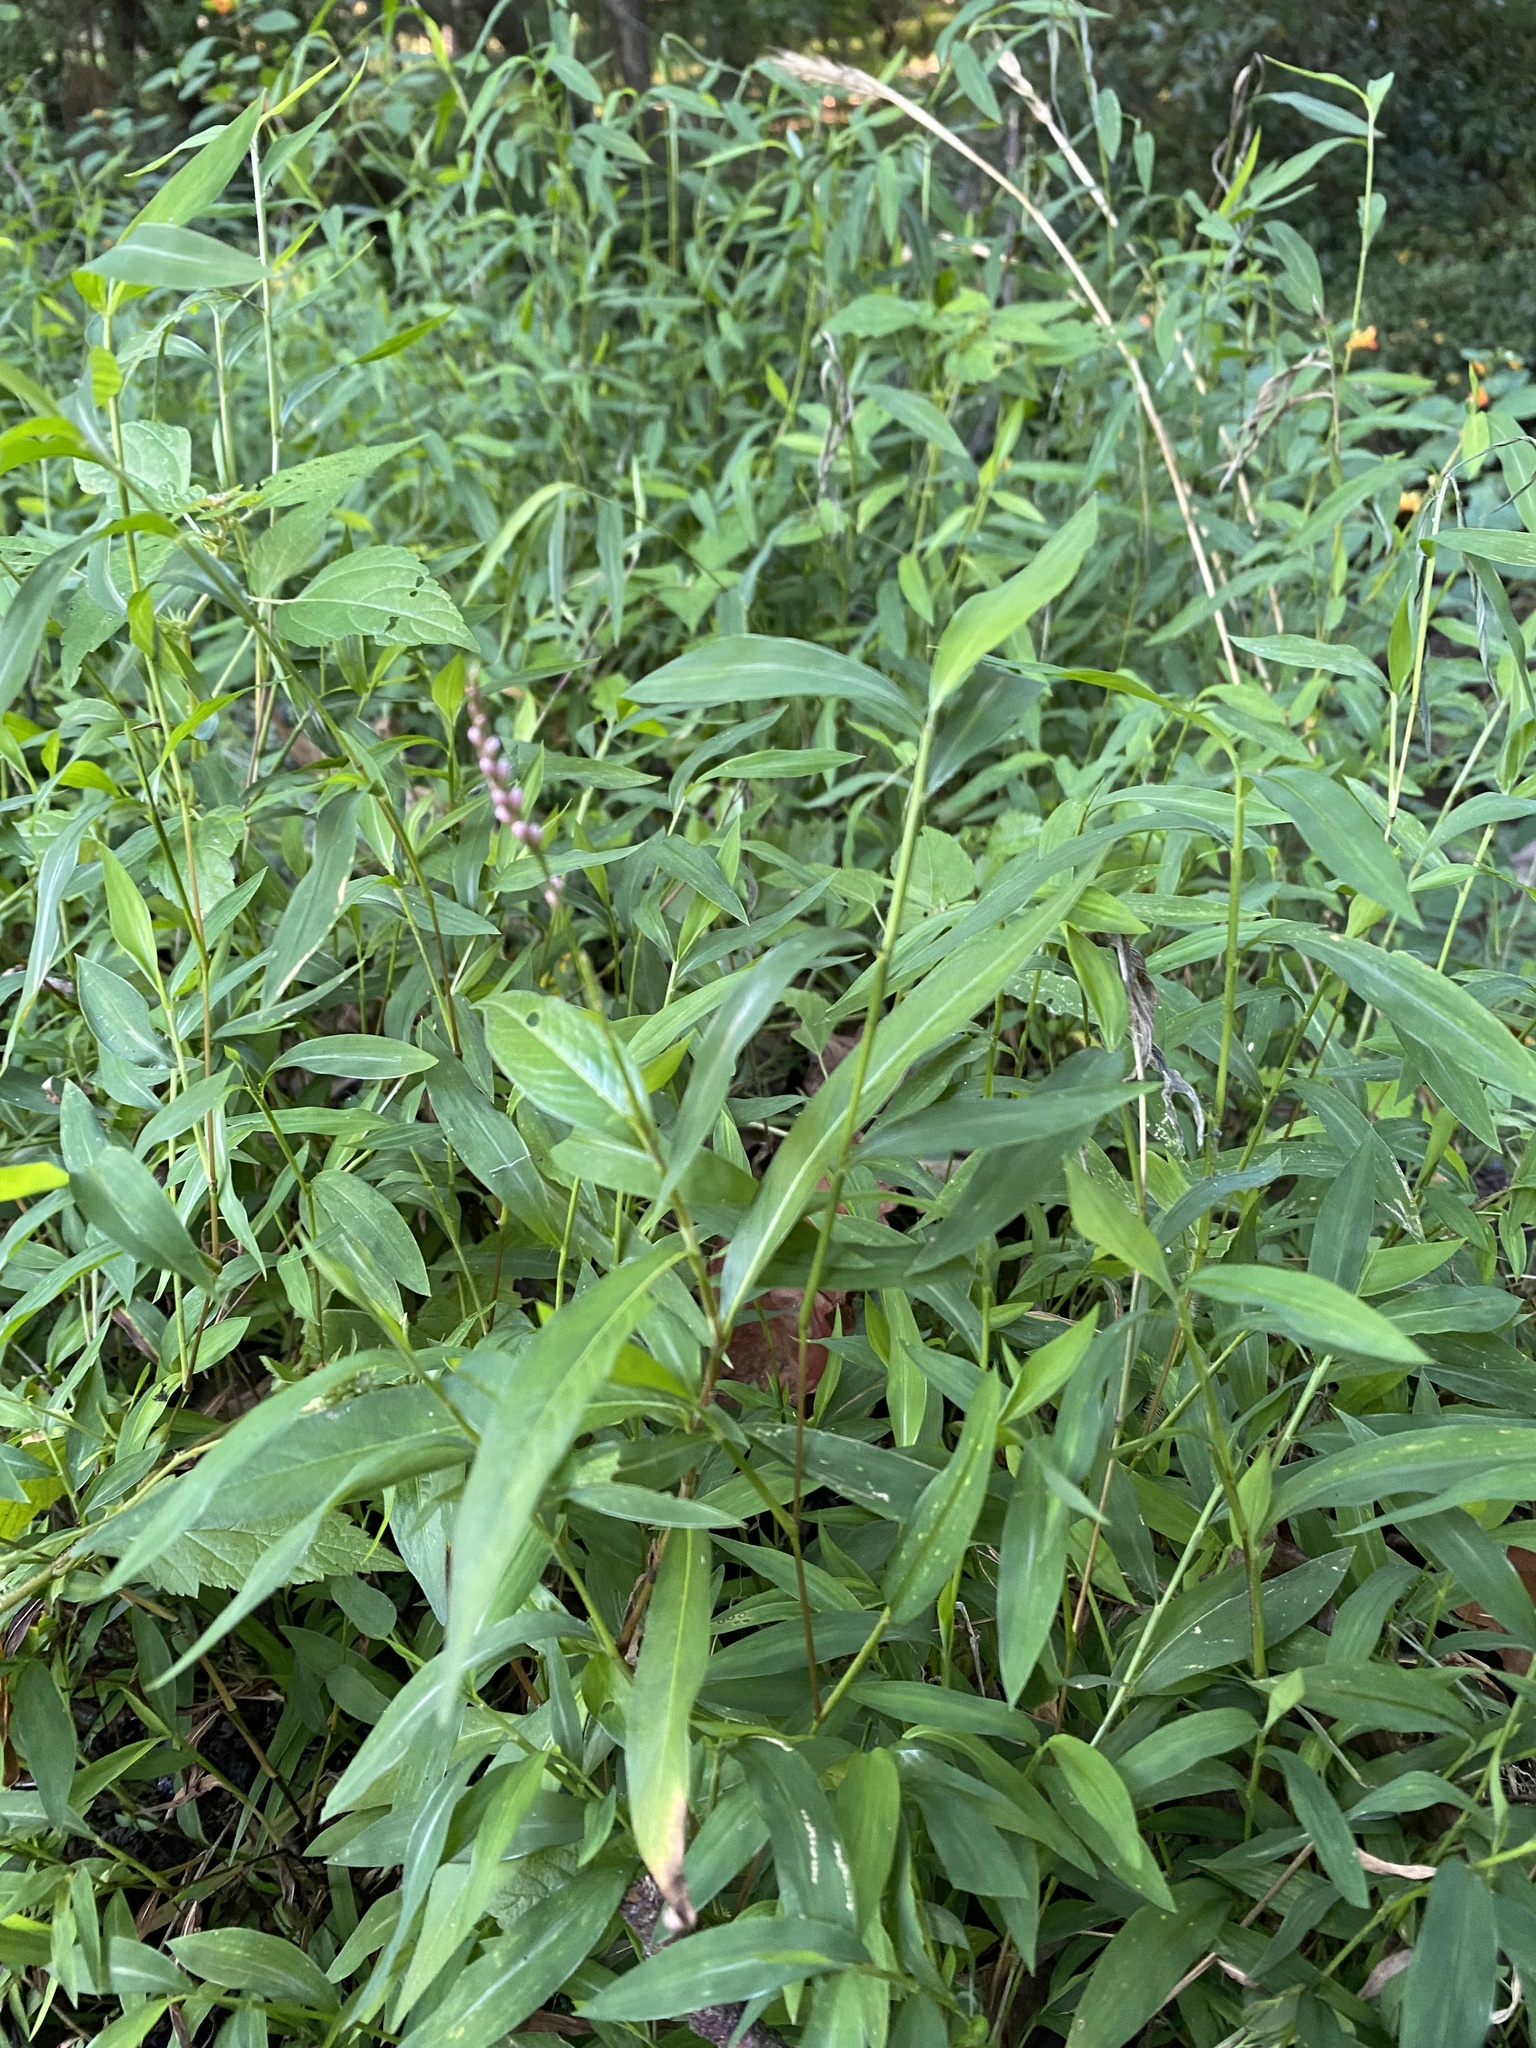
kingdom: Plantae
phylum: Tracheophyta
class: Liliopsida
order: Poales
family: Poaceae
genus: Microstegium
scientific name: Microstegium vimineum
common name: Japanese stiltgrass
